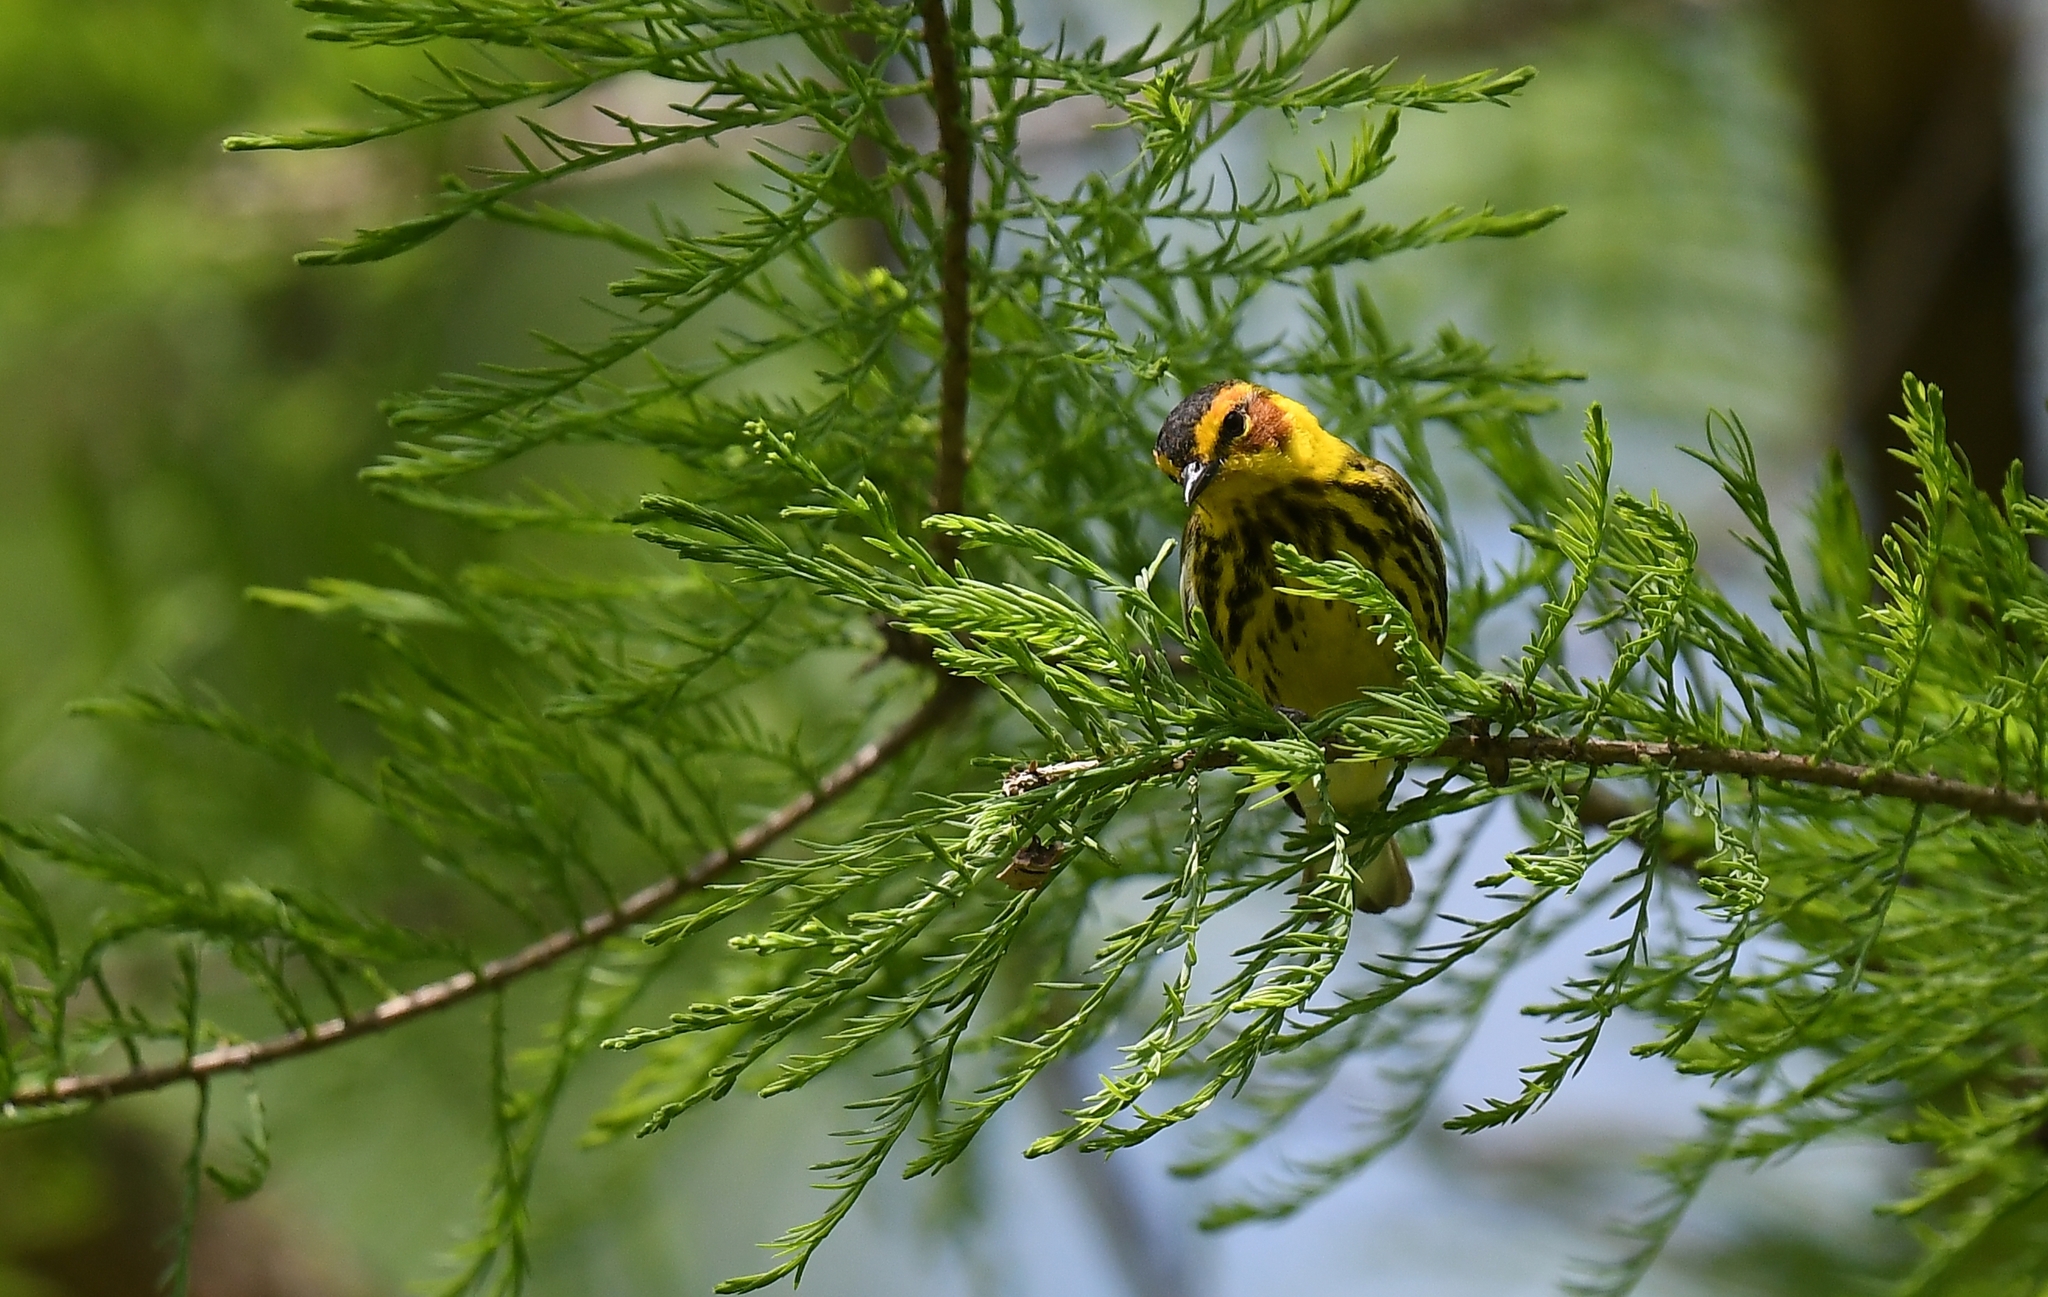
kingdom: Animalia
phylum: Chordata
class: Aves
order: Passeriformes
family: Parulidae
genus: Setophaga
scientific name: Setophaga tigrina
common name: Cape may warbler
